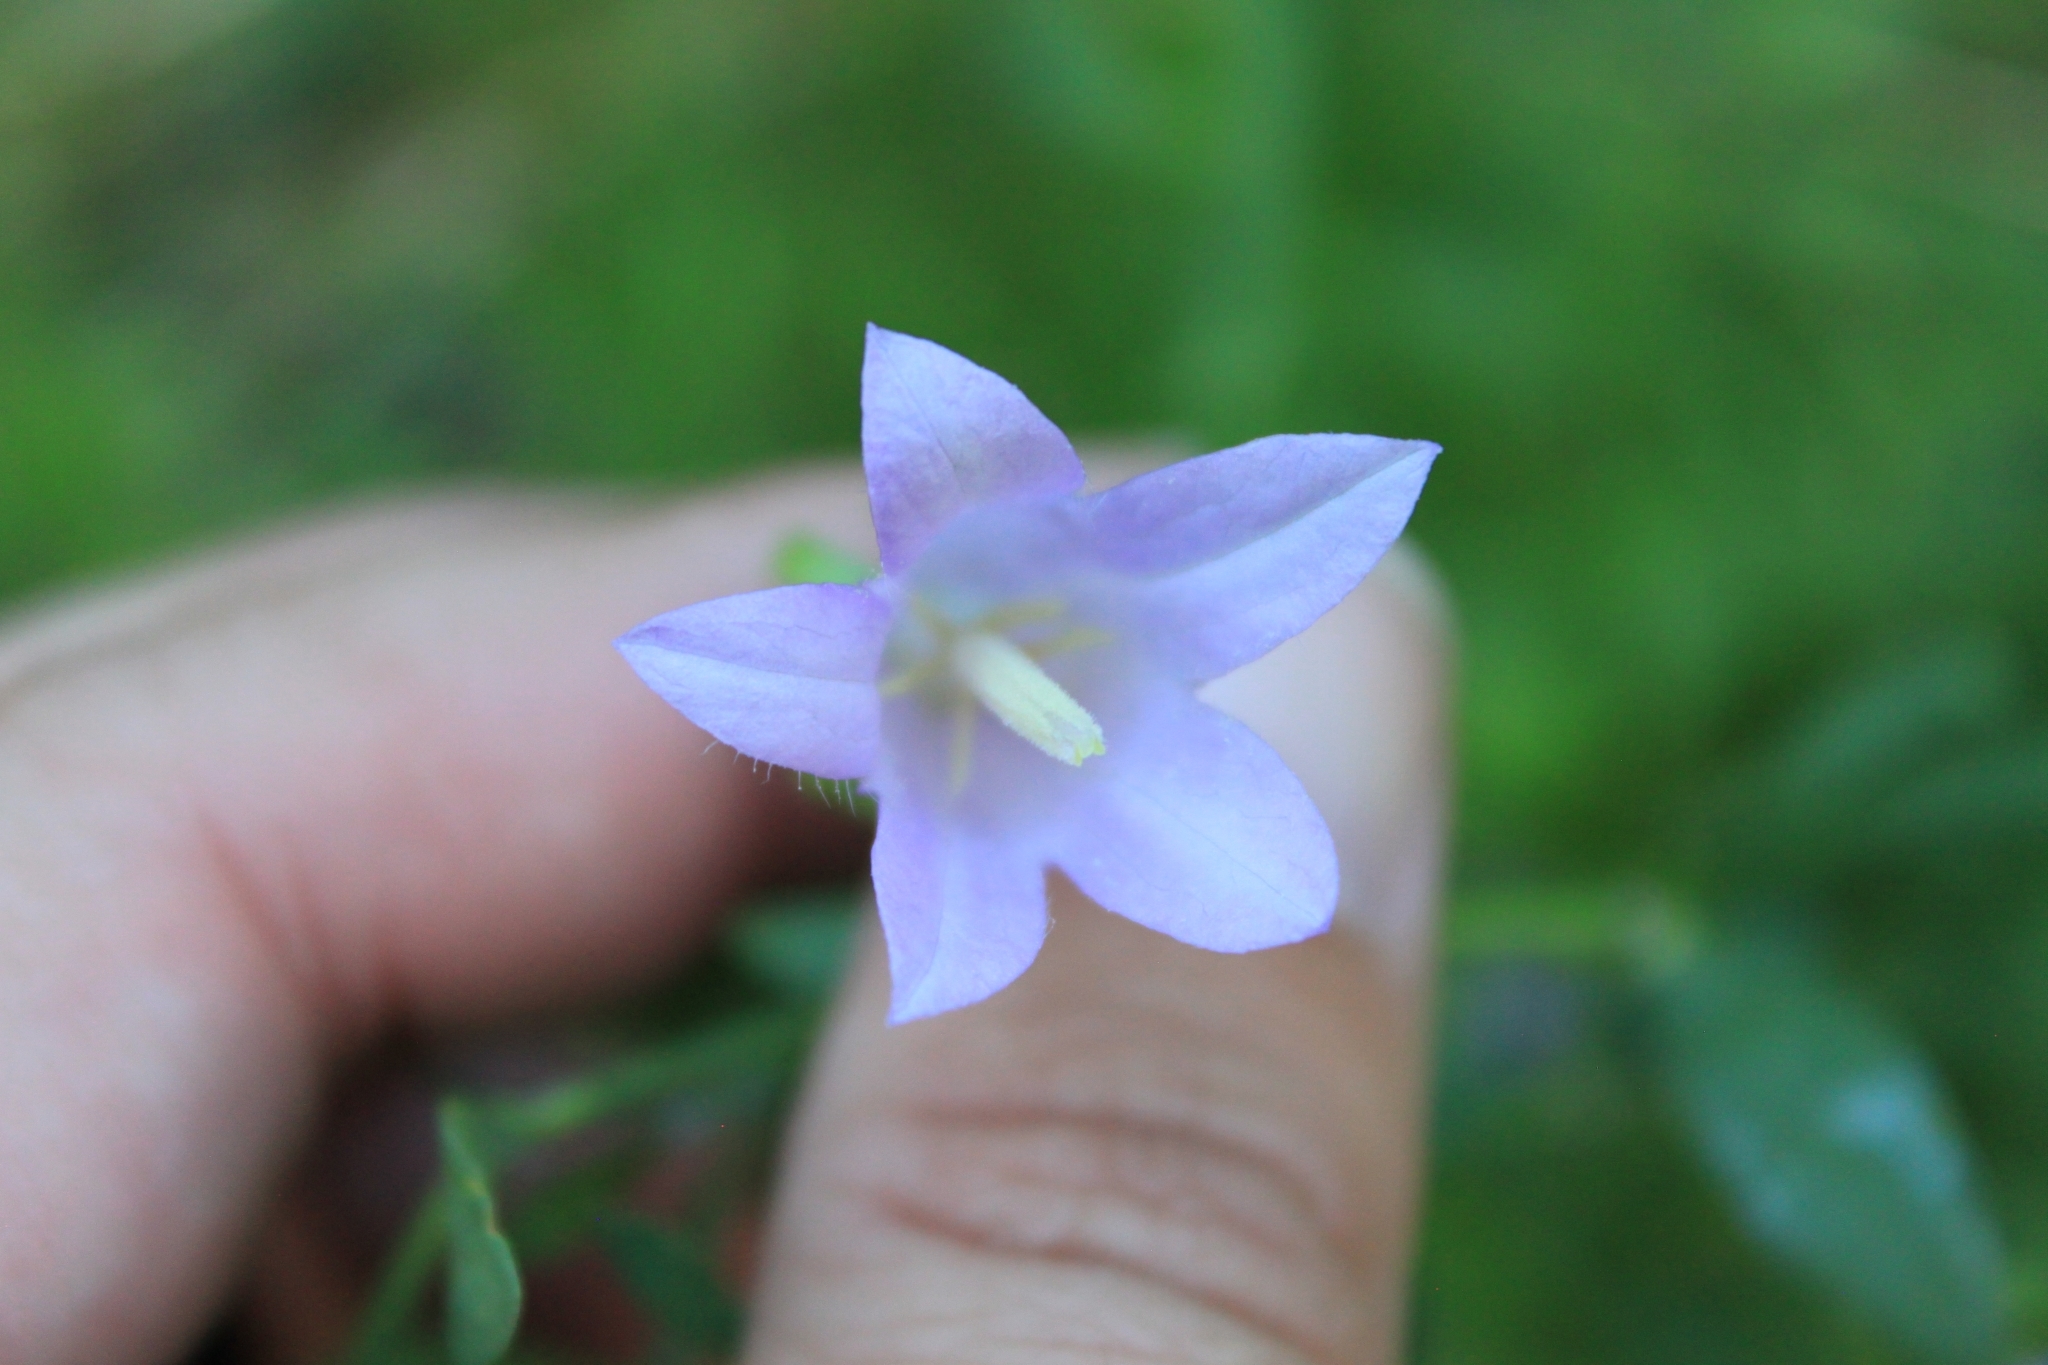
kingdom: Plantae
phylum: Tracheophyta
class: Magnoliopsida
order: Asterales
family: Campanulaceae
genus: Campanula
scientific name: Campanula petiolata
